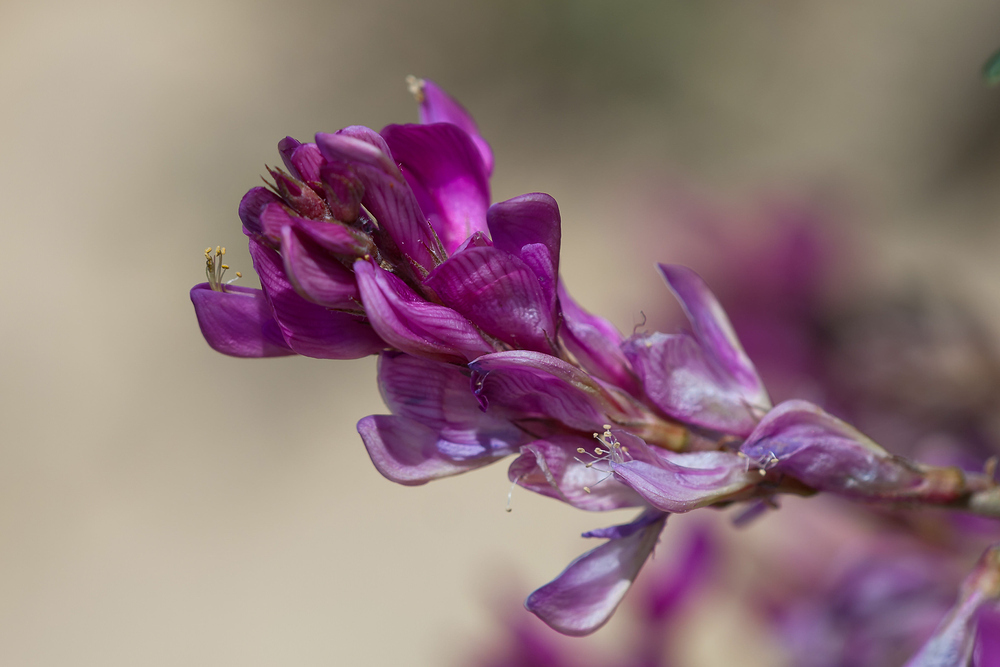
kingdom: Plantae
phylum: Tracheophyta
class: Magnoliopsida
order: Fabales
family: Fabaceae
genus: Hedysarum
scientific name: Hedysarum boveanum
